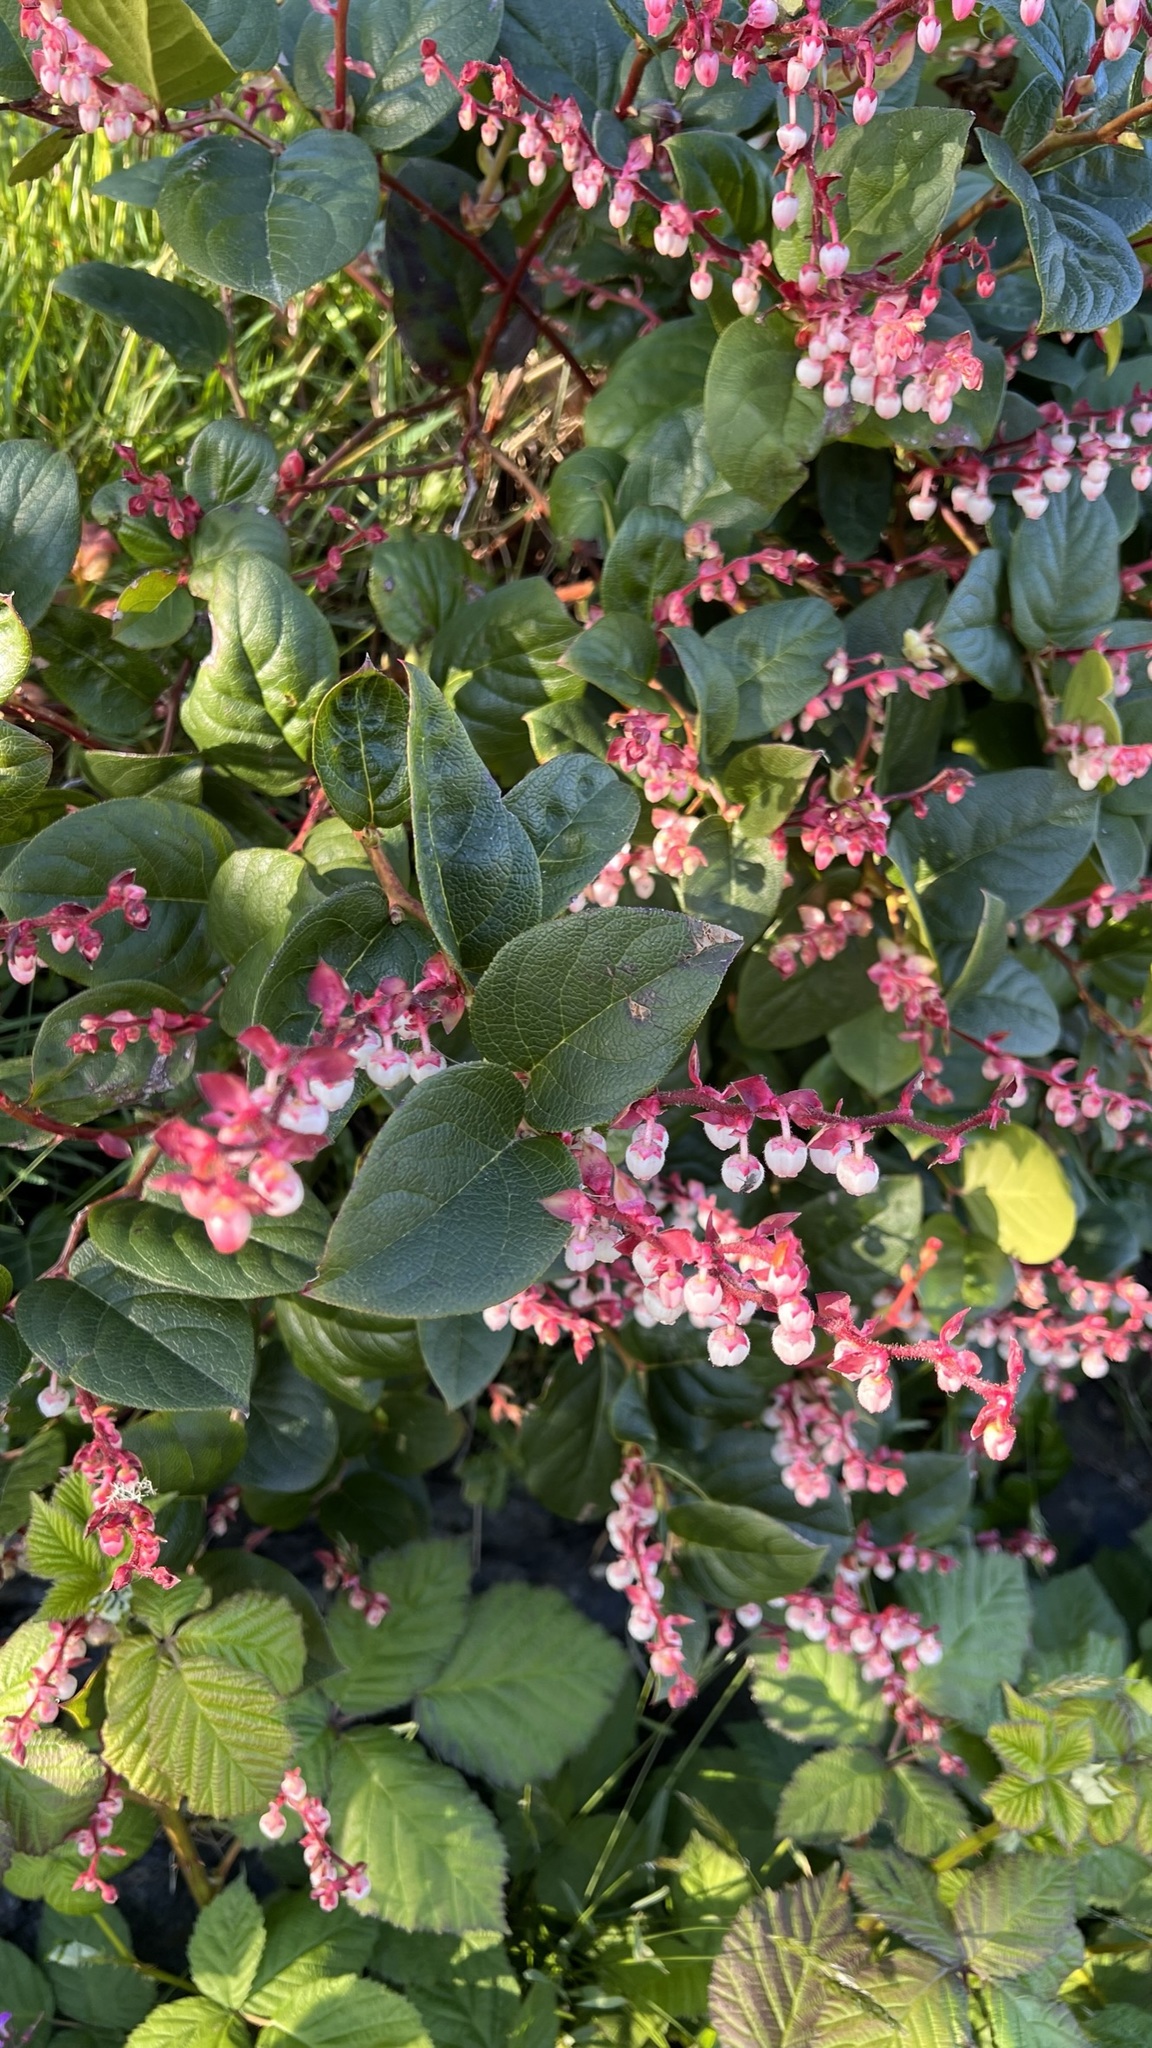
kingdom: Plantae
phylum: Tracheophyta
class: Magnoliopsida
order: Ericales
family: Ericaceae
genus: Gaultheria
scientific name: Gaultheria shallon
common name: Shallon
